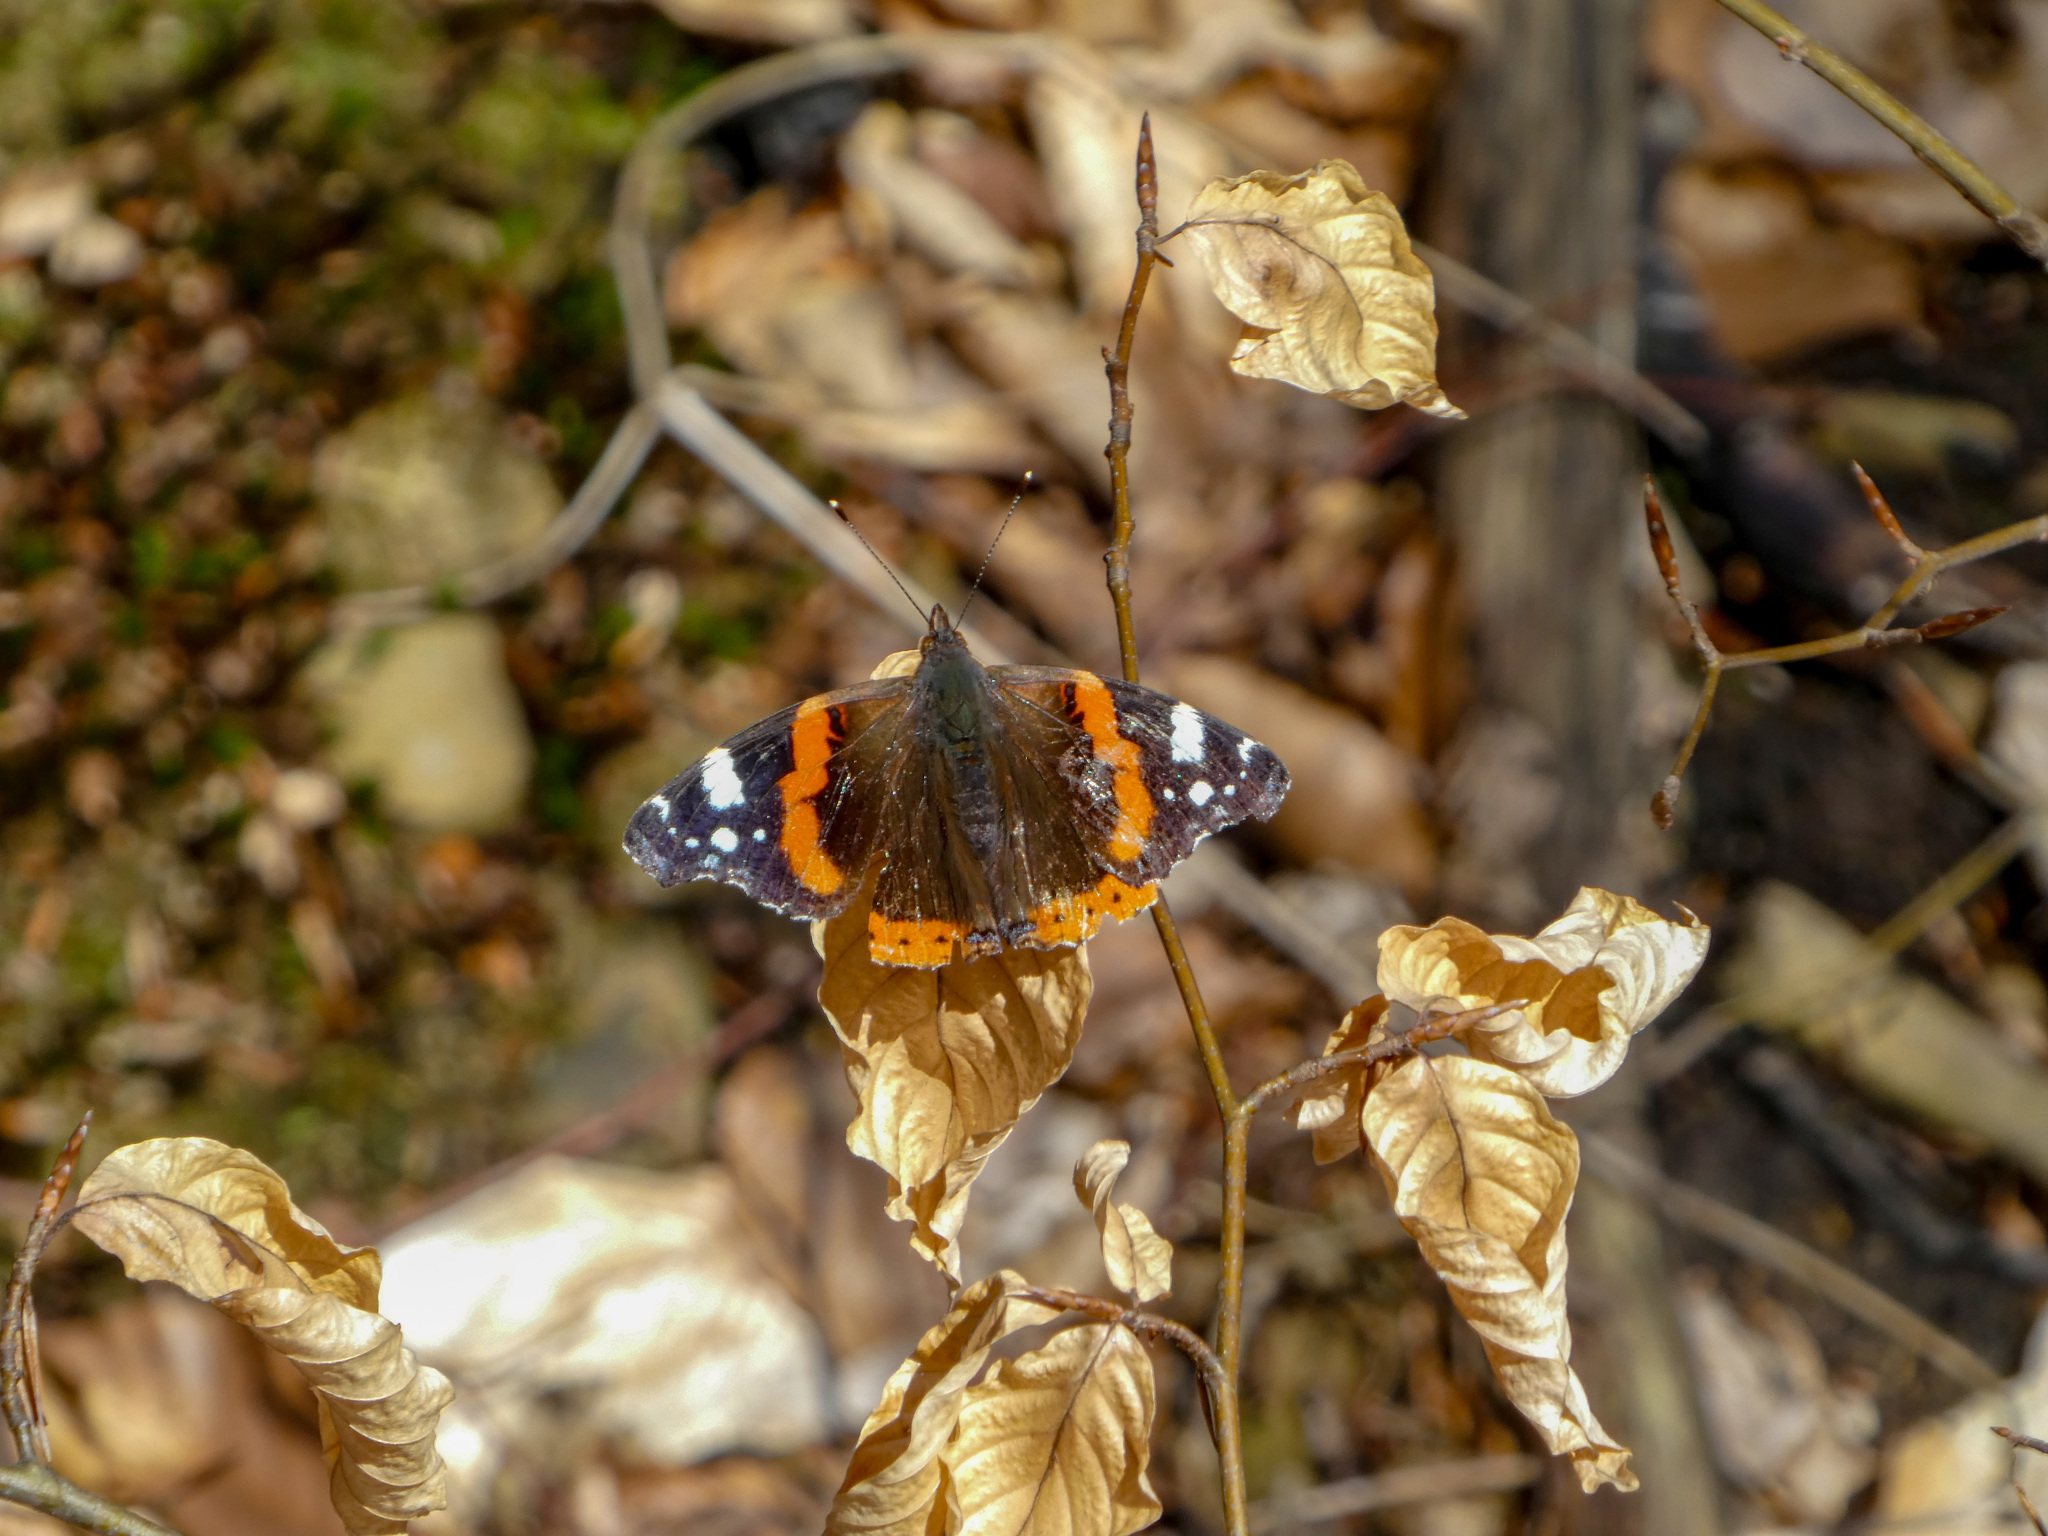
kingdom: Animalia
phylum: Arthropoda
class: Insecta
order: Lepidoptera
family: Nymphalidae
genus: Vanessa
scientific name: Vanessa atalanta
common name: Red admiral
